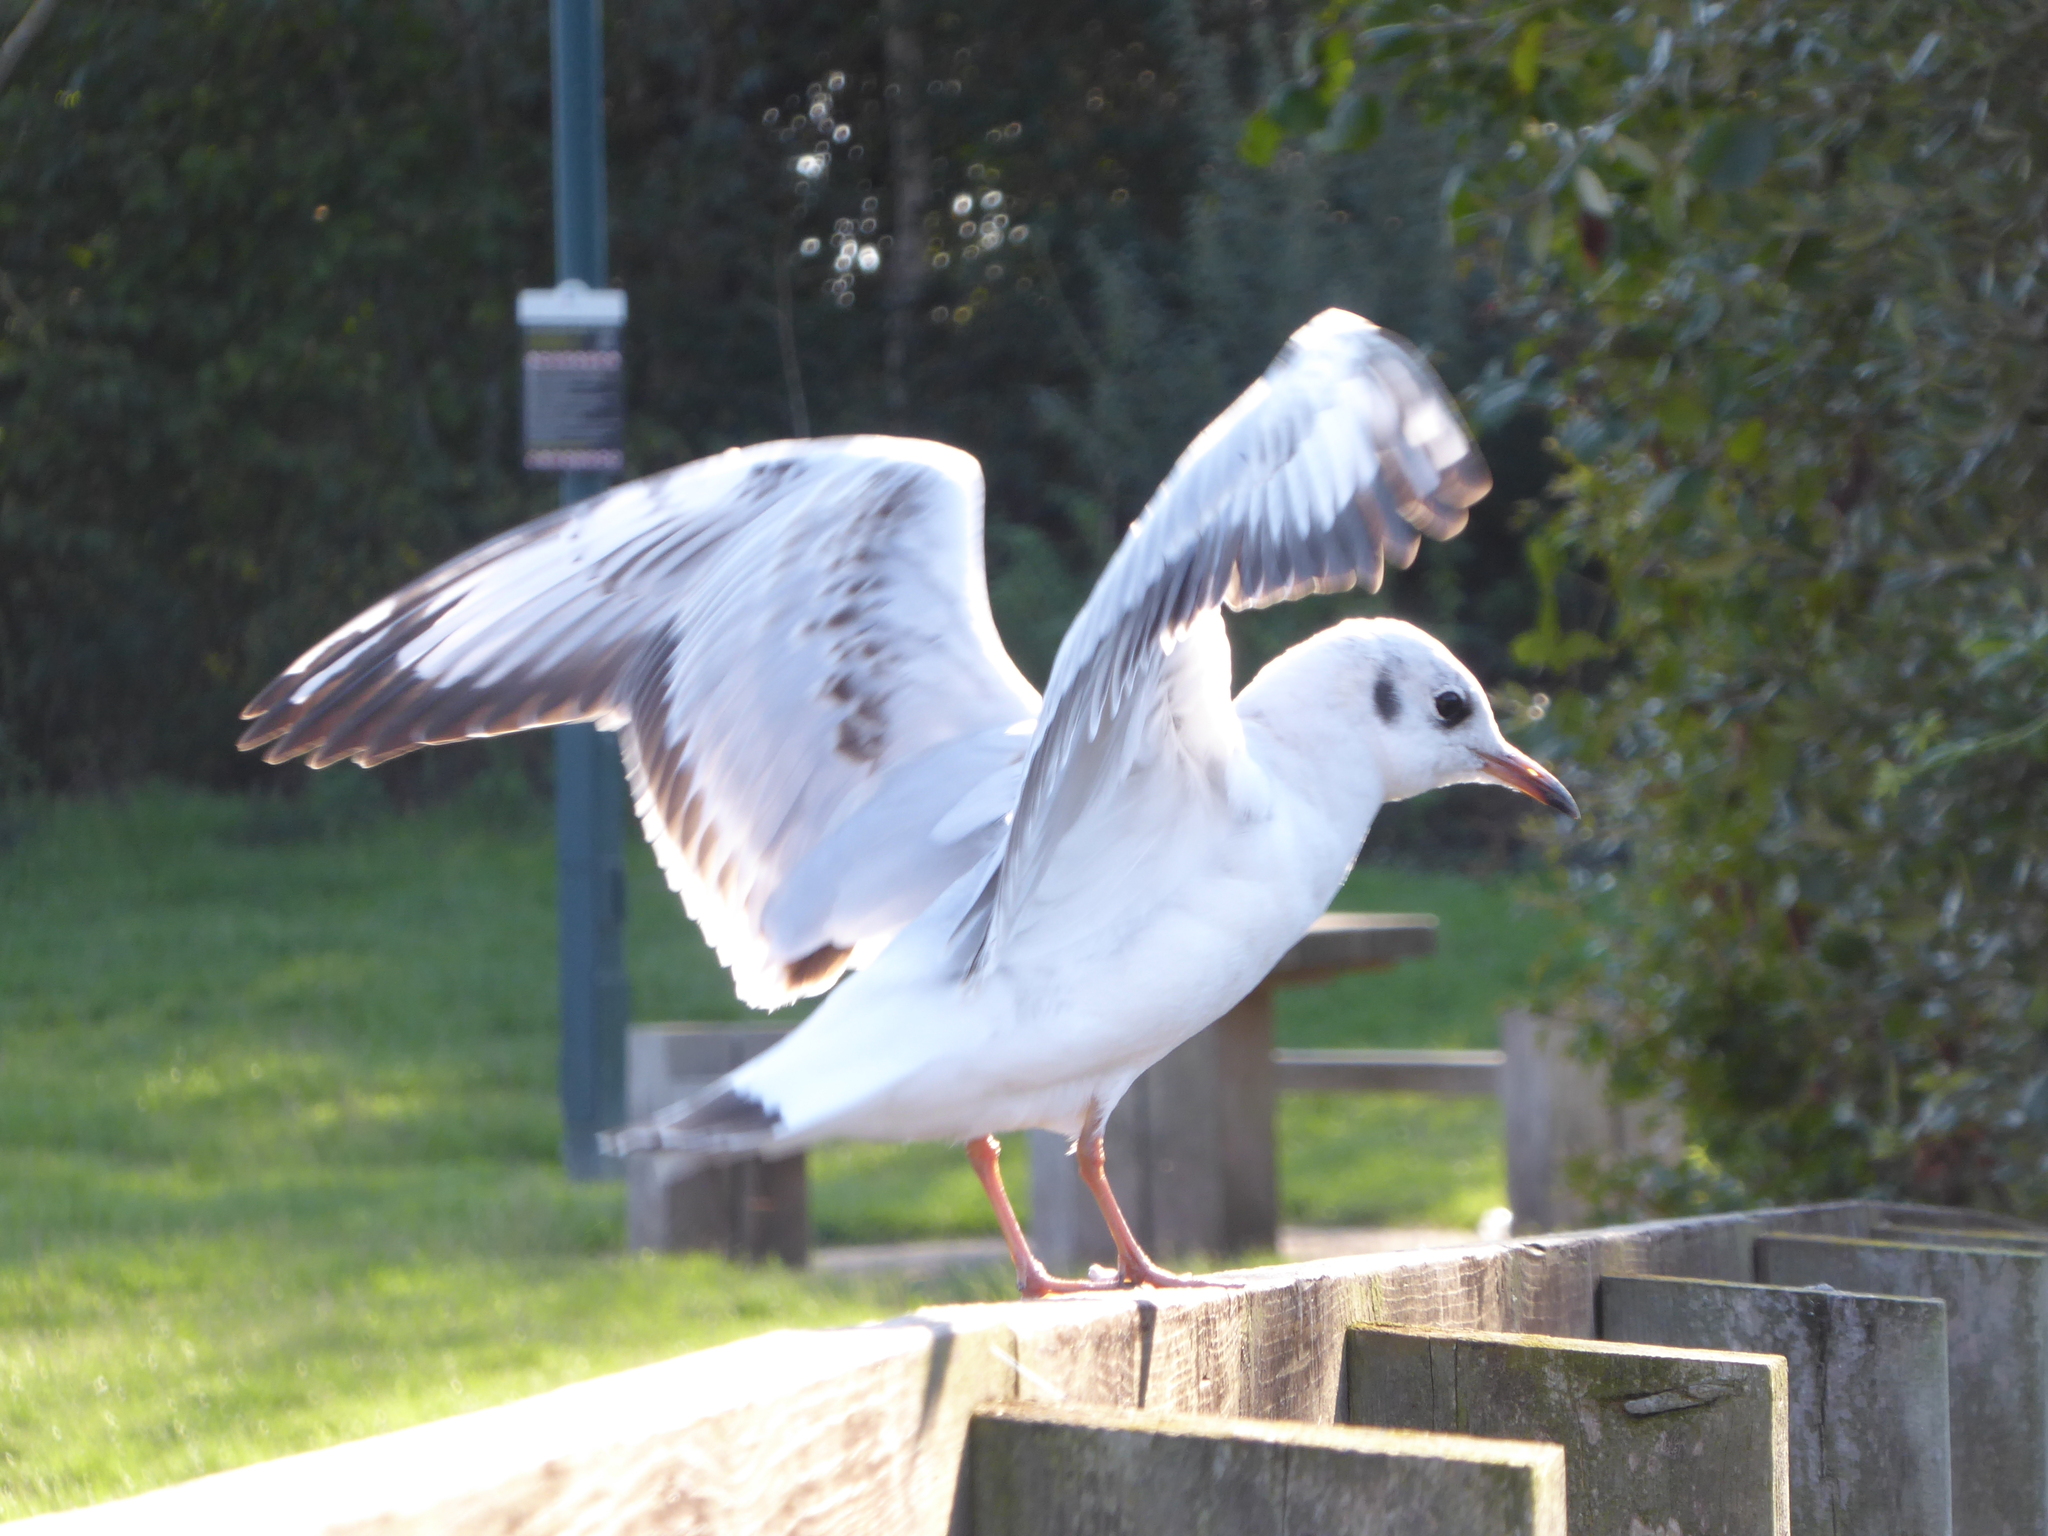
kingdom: Animalia
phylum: Chordata
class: Aves
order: Charadriiformes
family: Laridae
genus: Chroicocephalus
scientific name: Chroicocephalus ridibundus
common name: Black-headed gull
